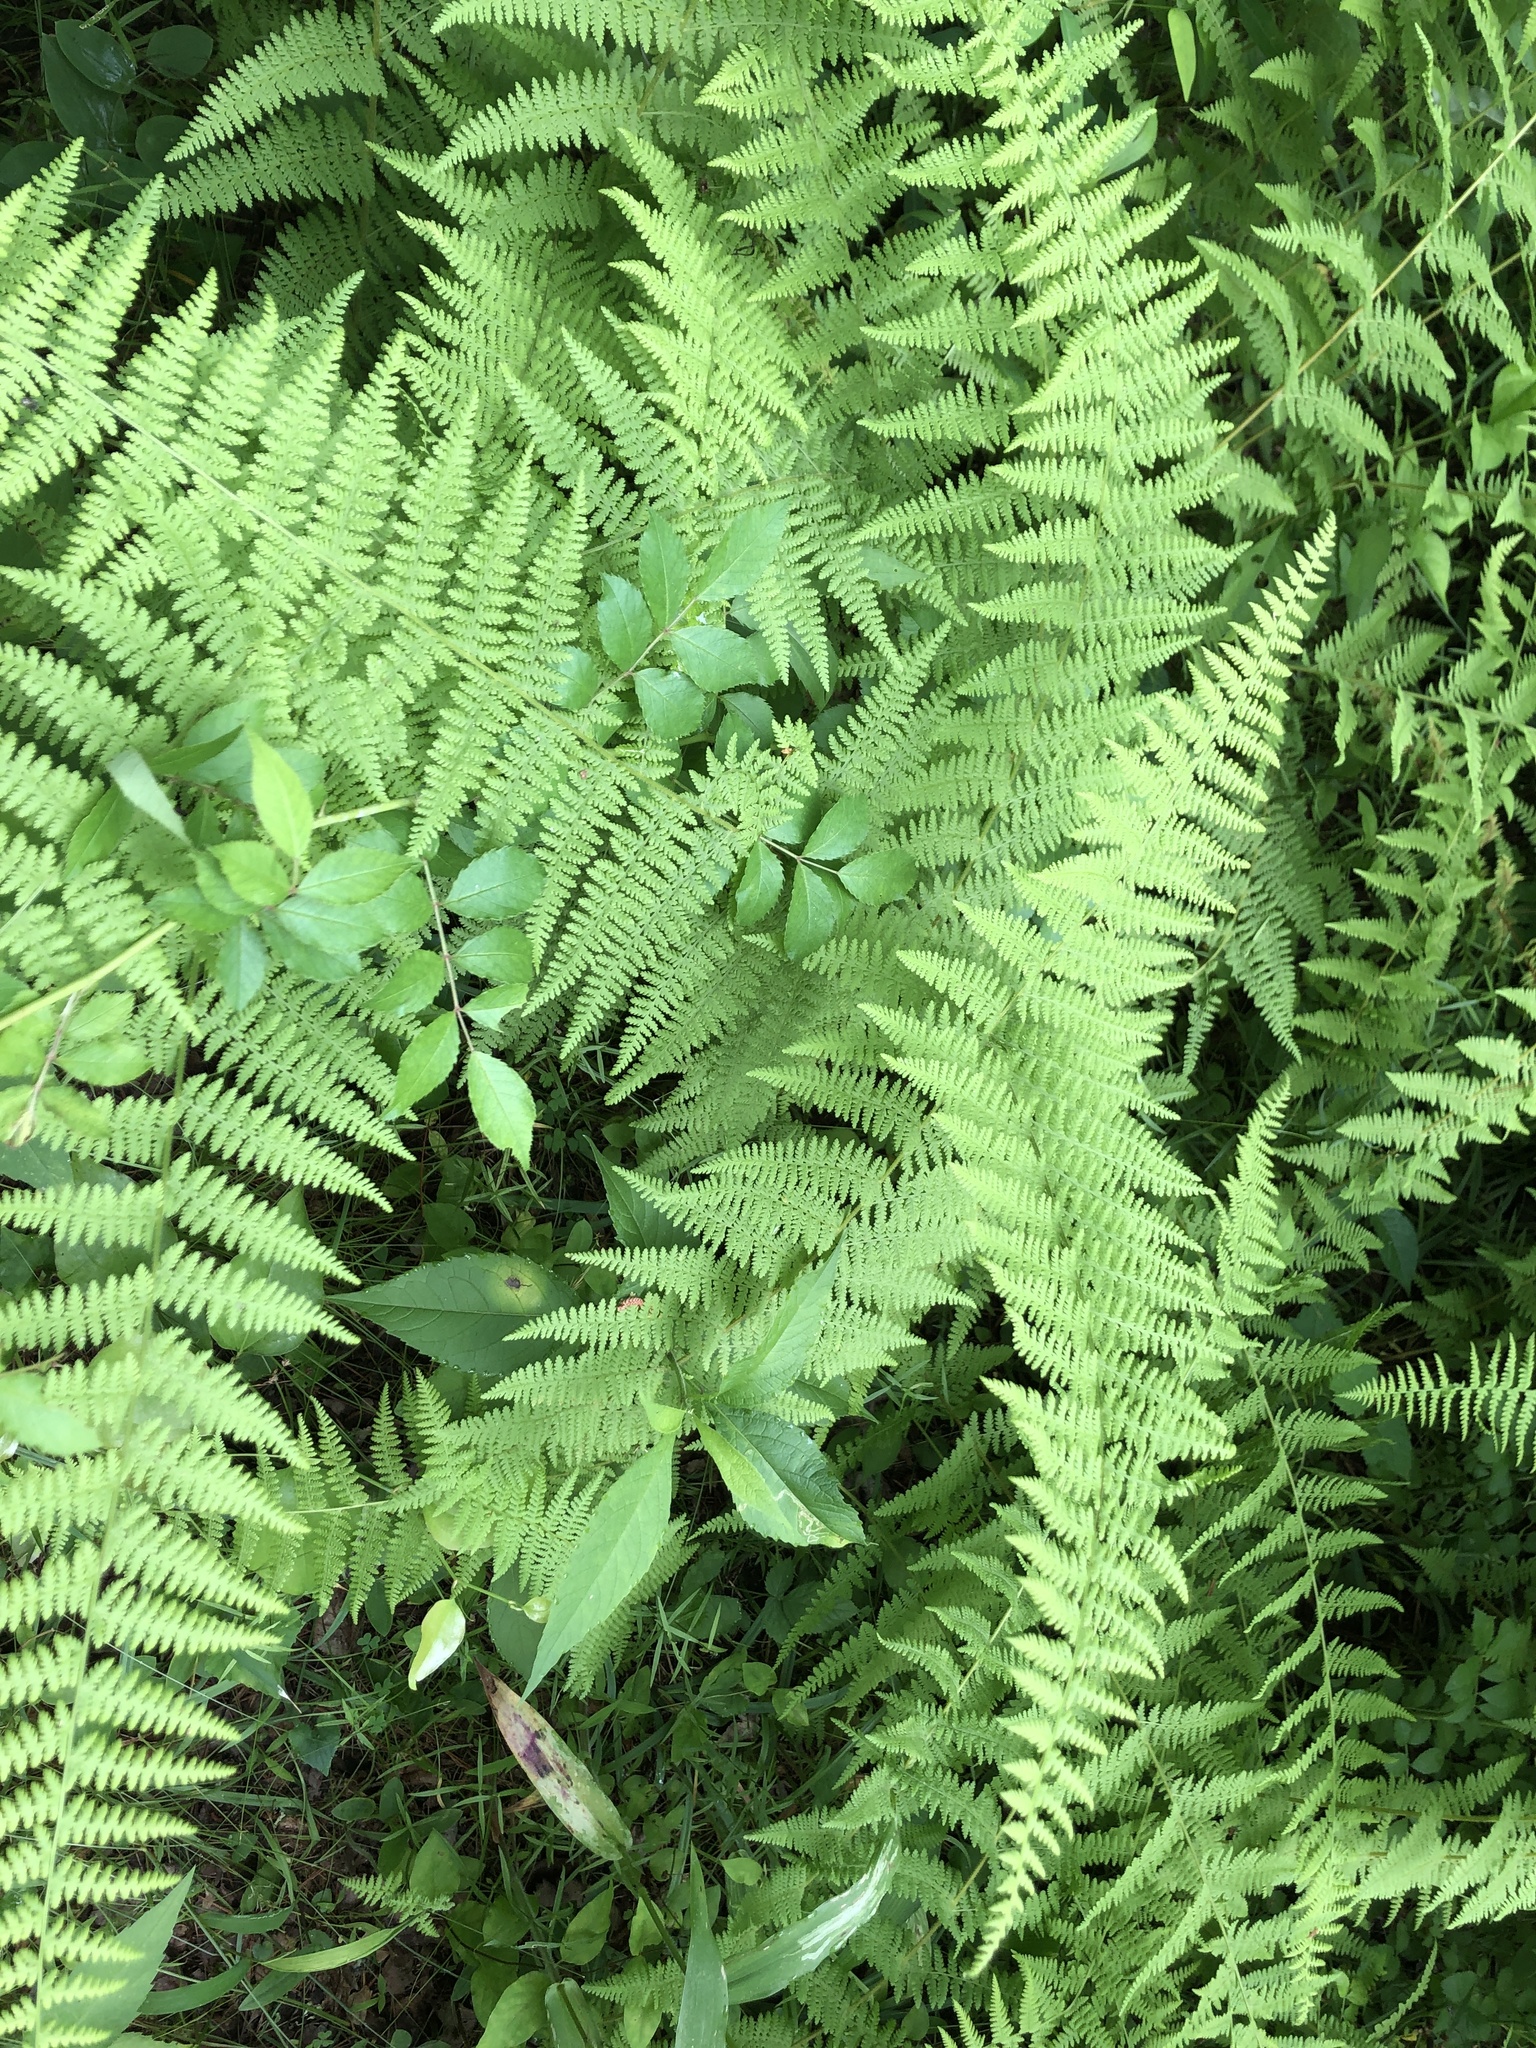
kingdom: Plantae
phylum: Tracheophyta
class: Polypodiopsida
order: Polypodiales
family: Dennstaedtiaceae
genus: Sitobolium
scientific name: Sitobolium punctilobum
